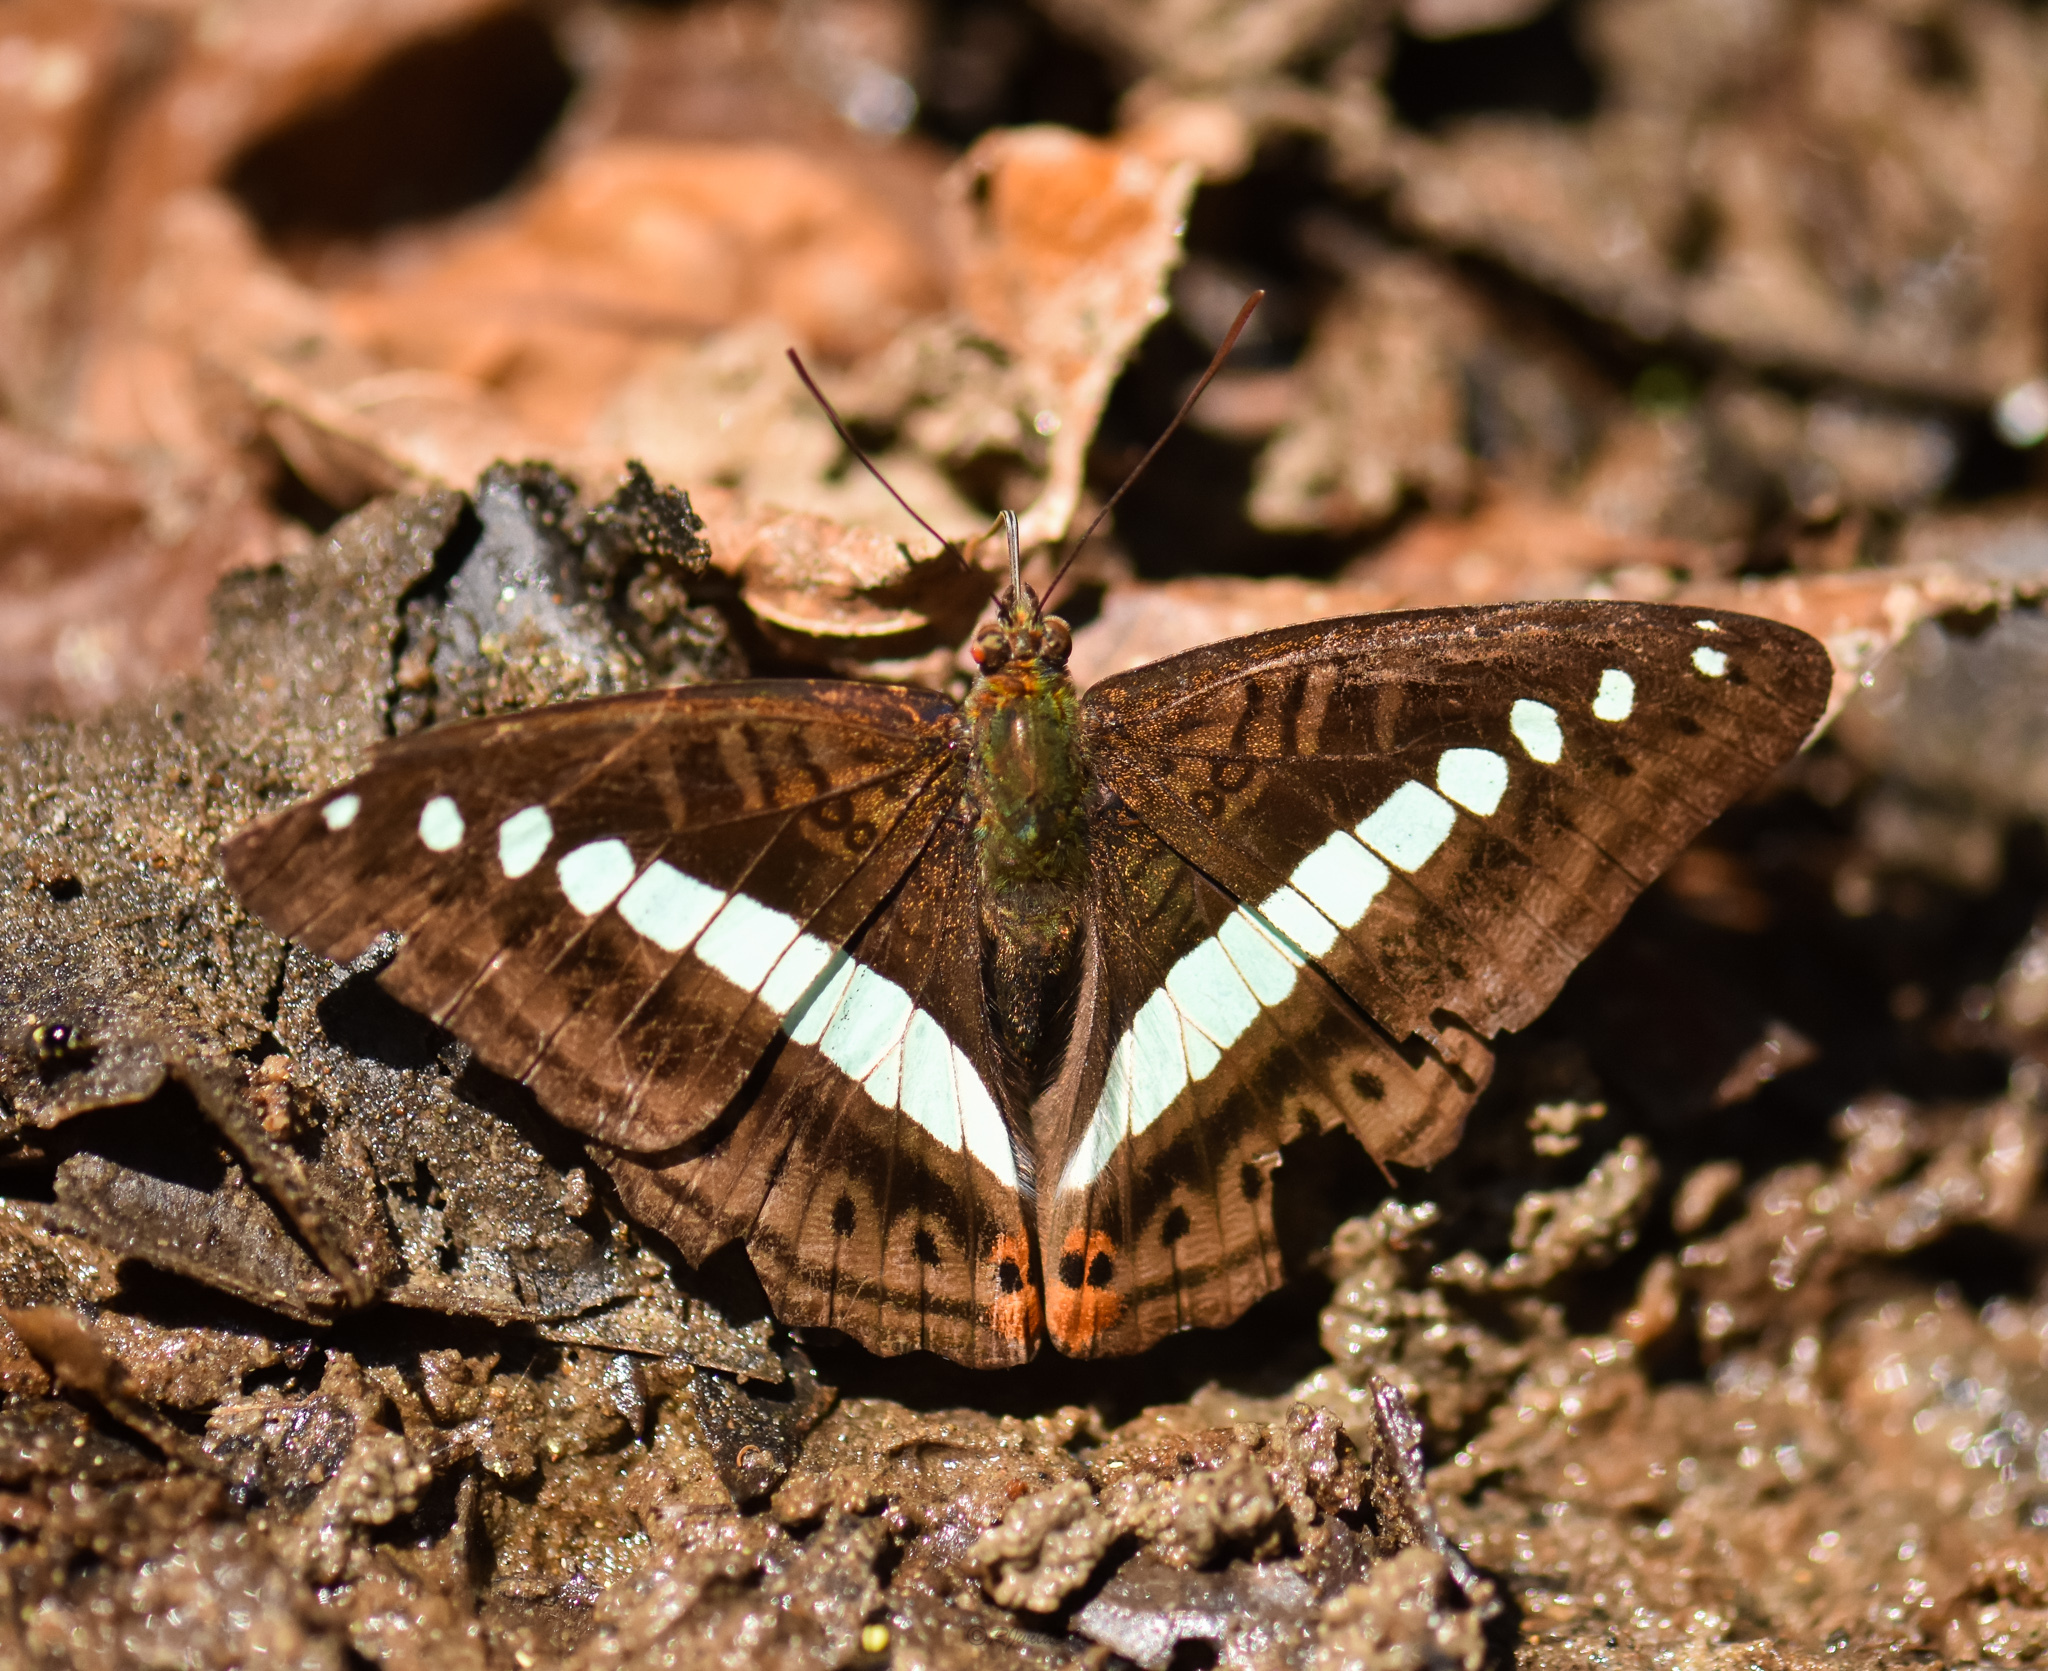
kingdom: Animalia
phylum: Arthropoda
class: Insecta
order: Lepidoptera
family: Nymphalidae
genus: Limenitis
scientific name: Limenitis Sumalia daraxa
